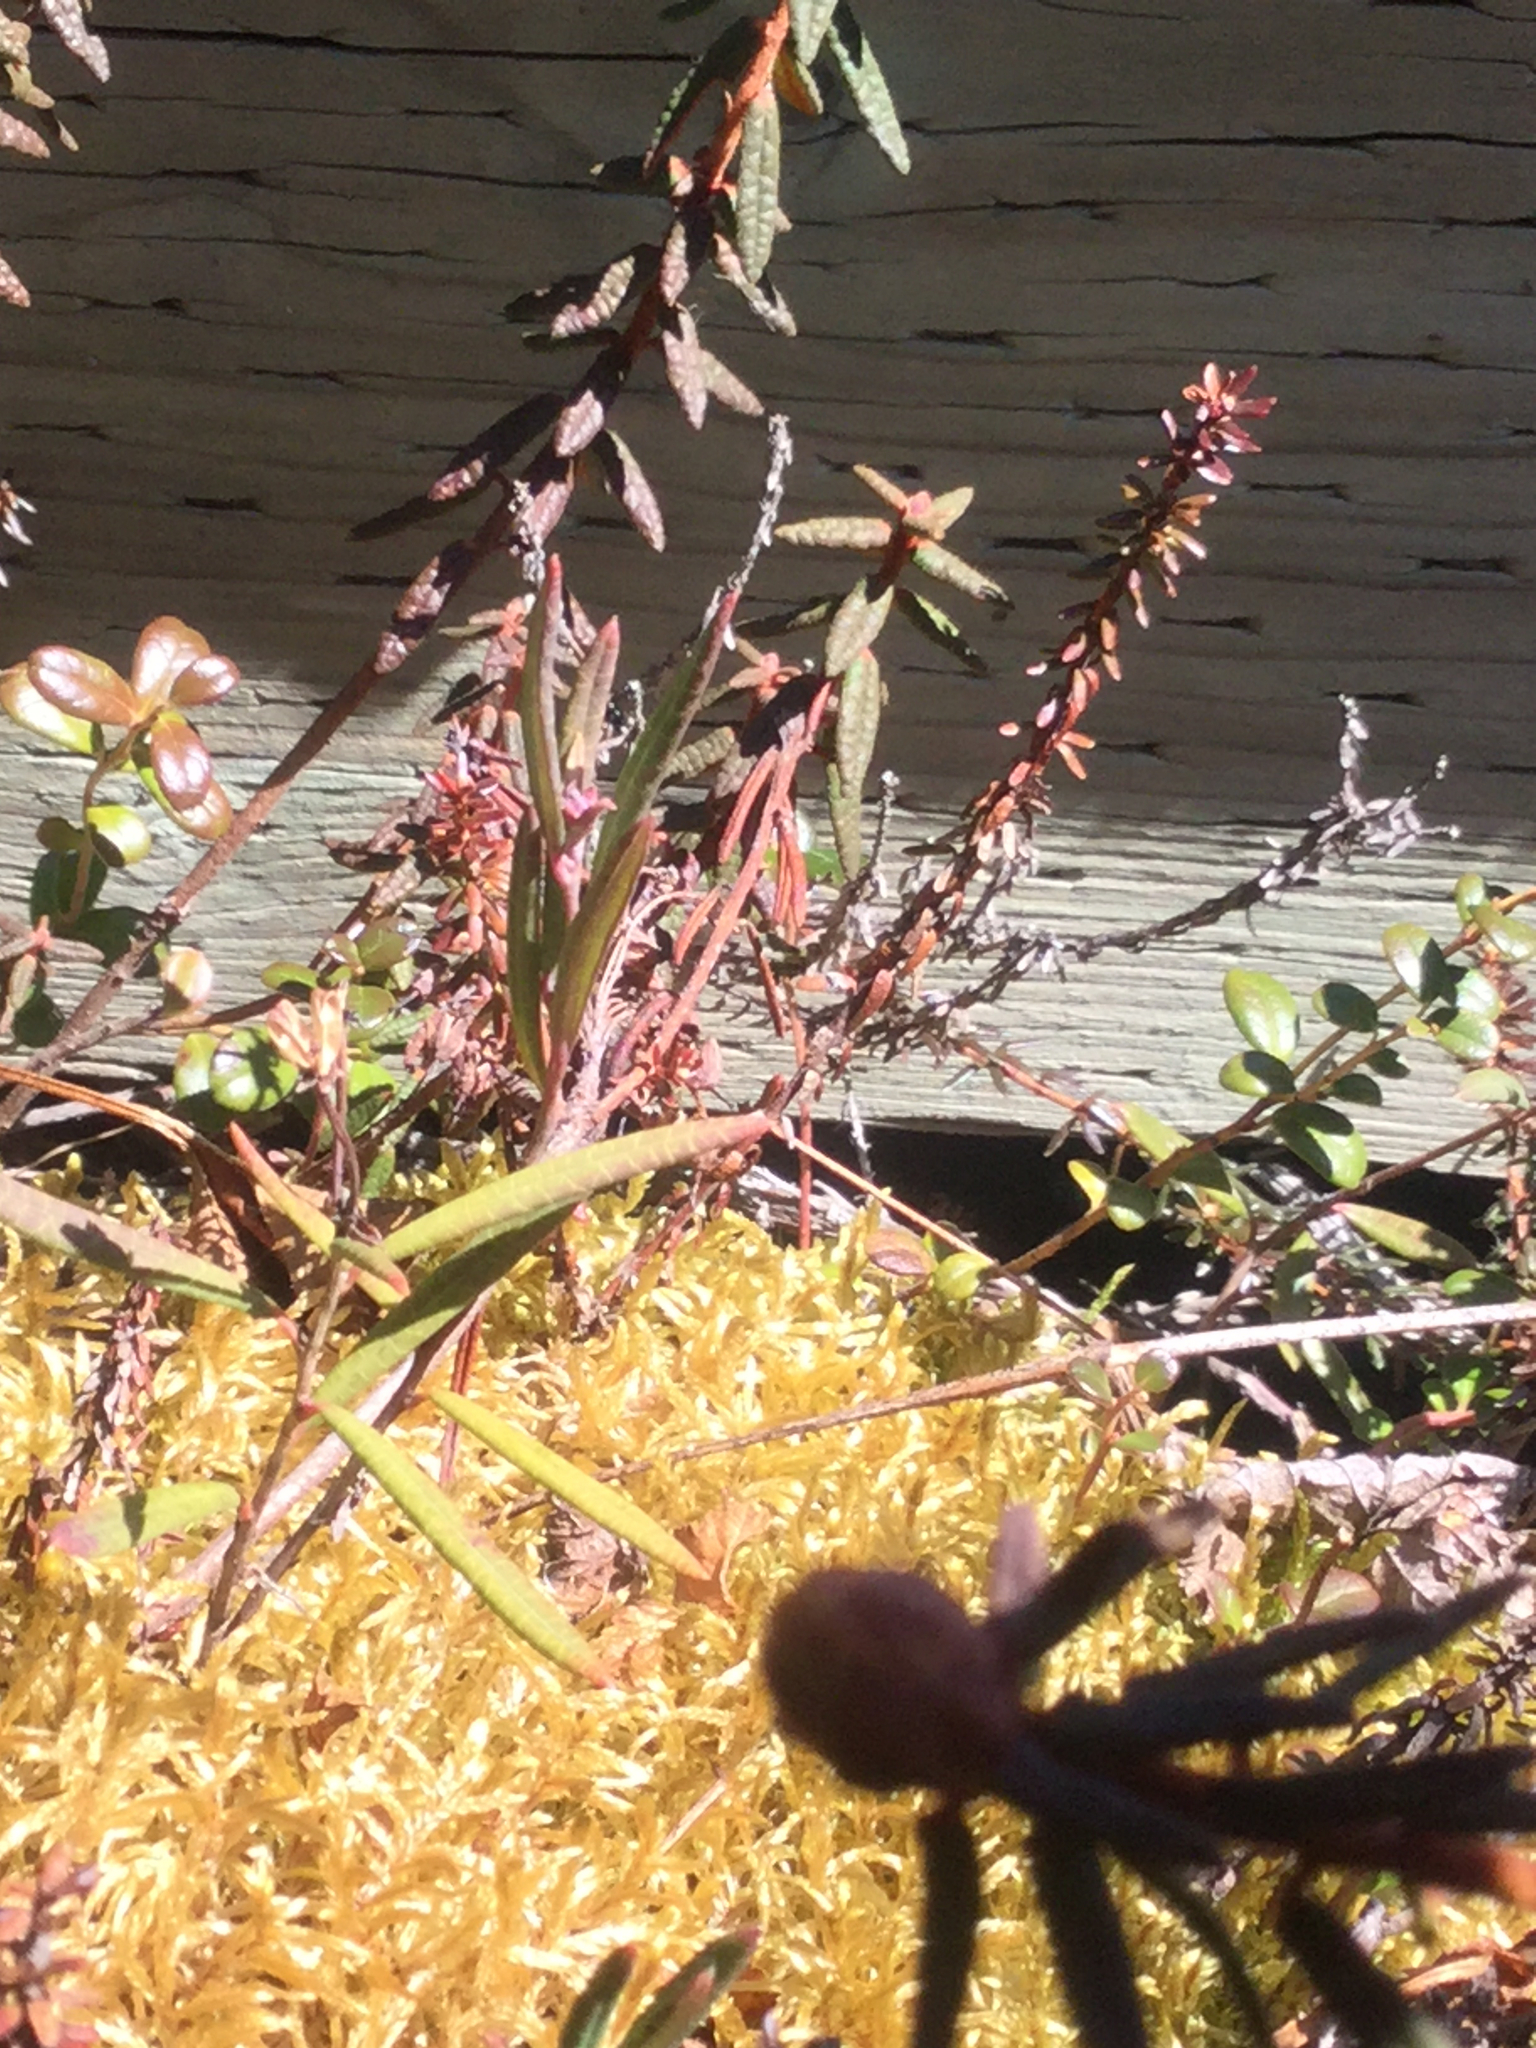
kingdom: Plantae
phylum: Tracheophyta
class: Magnoliopsida
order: Ericales
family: Ericaceae
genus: Andromeda
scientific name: Andromeda polifolia
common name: Bog-rosemary
